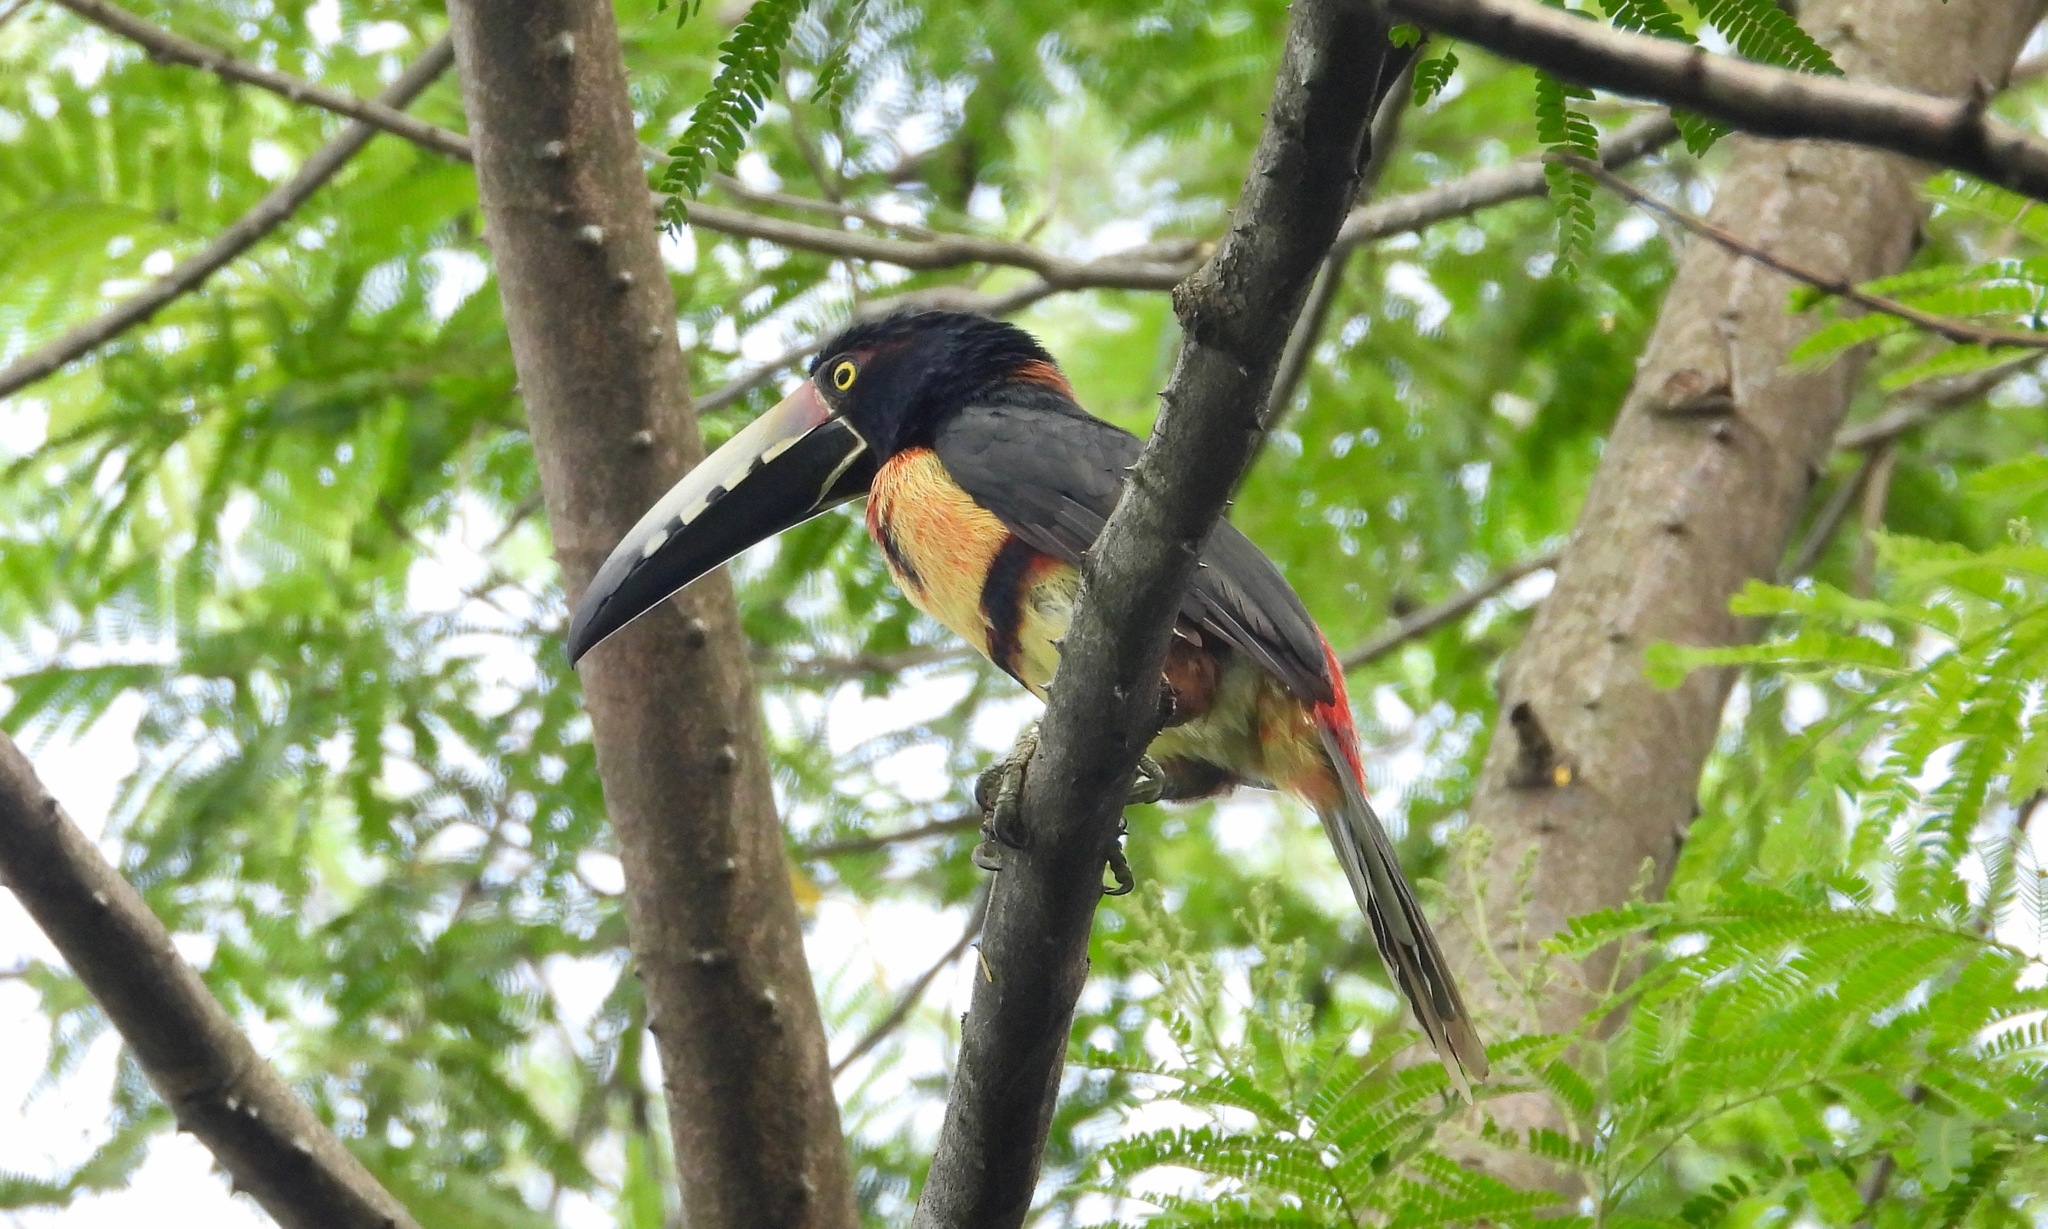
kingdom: Animalia
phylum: Chordata
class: Aves
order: Piciformes
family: Ramphastidae
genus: Pteroglossus
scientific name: Pteroglossus torquatus
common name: Collared aracari
